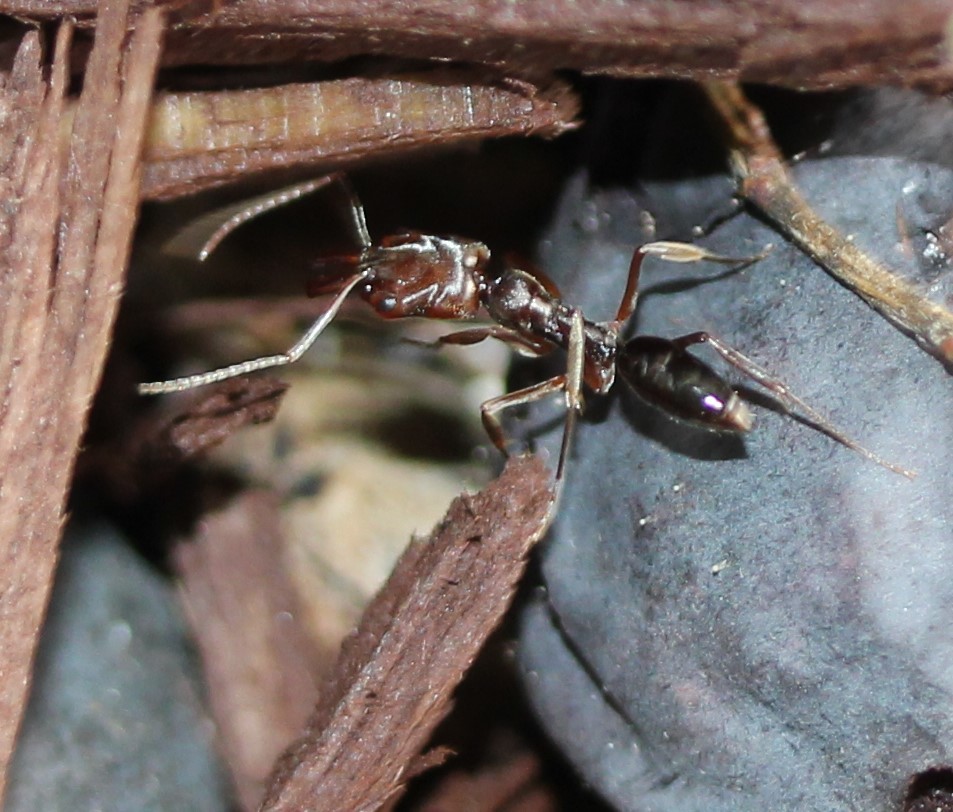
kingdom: Animalia
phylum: Arthropoda
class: Insecta
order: Hymenoptera
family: Formicidae
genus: Odontomachus
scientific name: Odontomachus ruginodis
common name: Trapjaw ant
